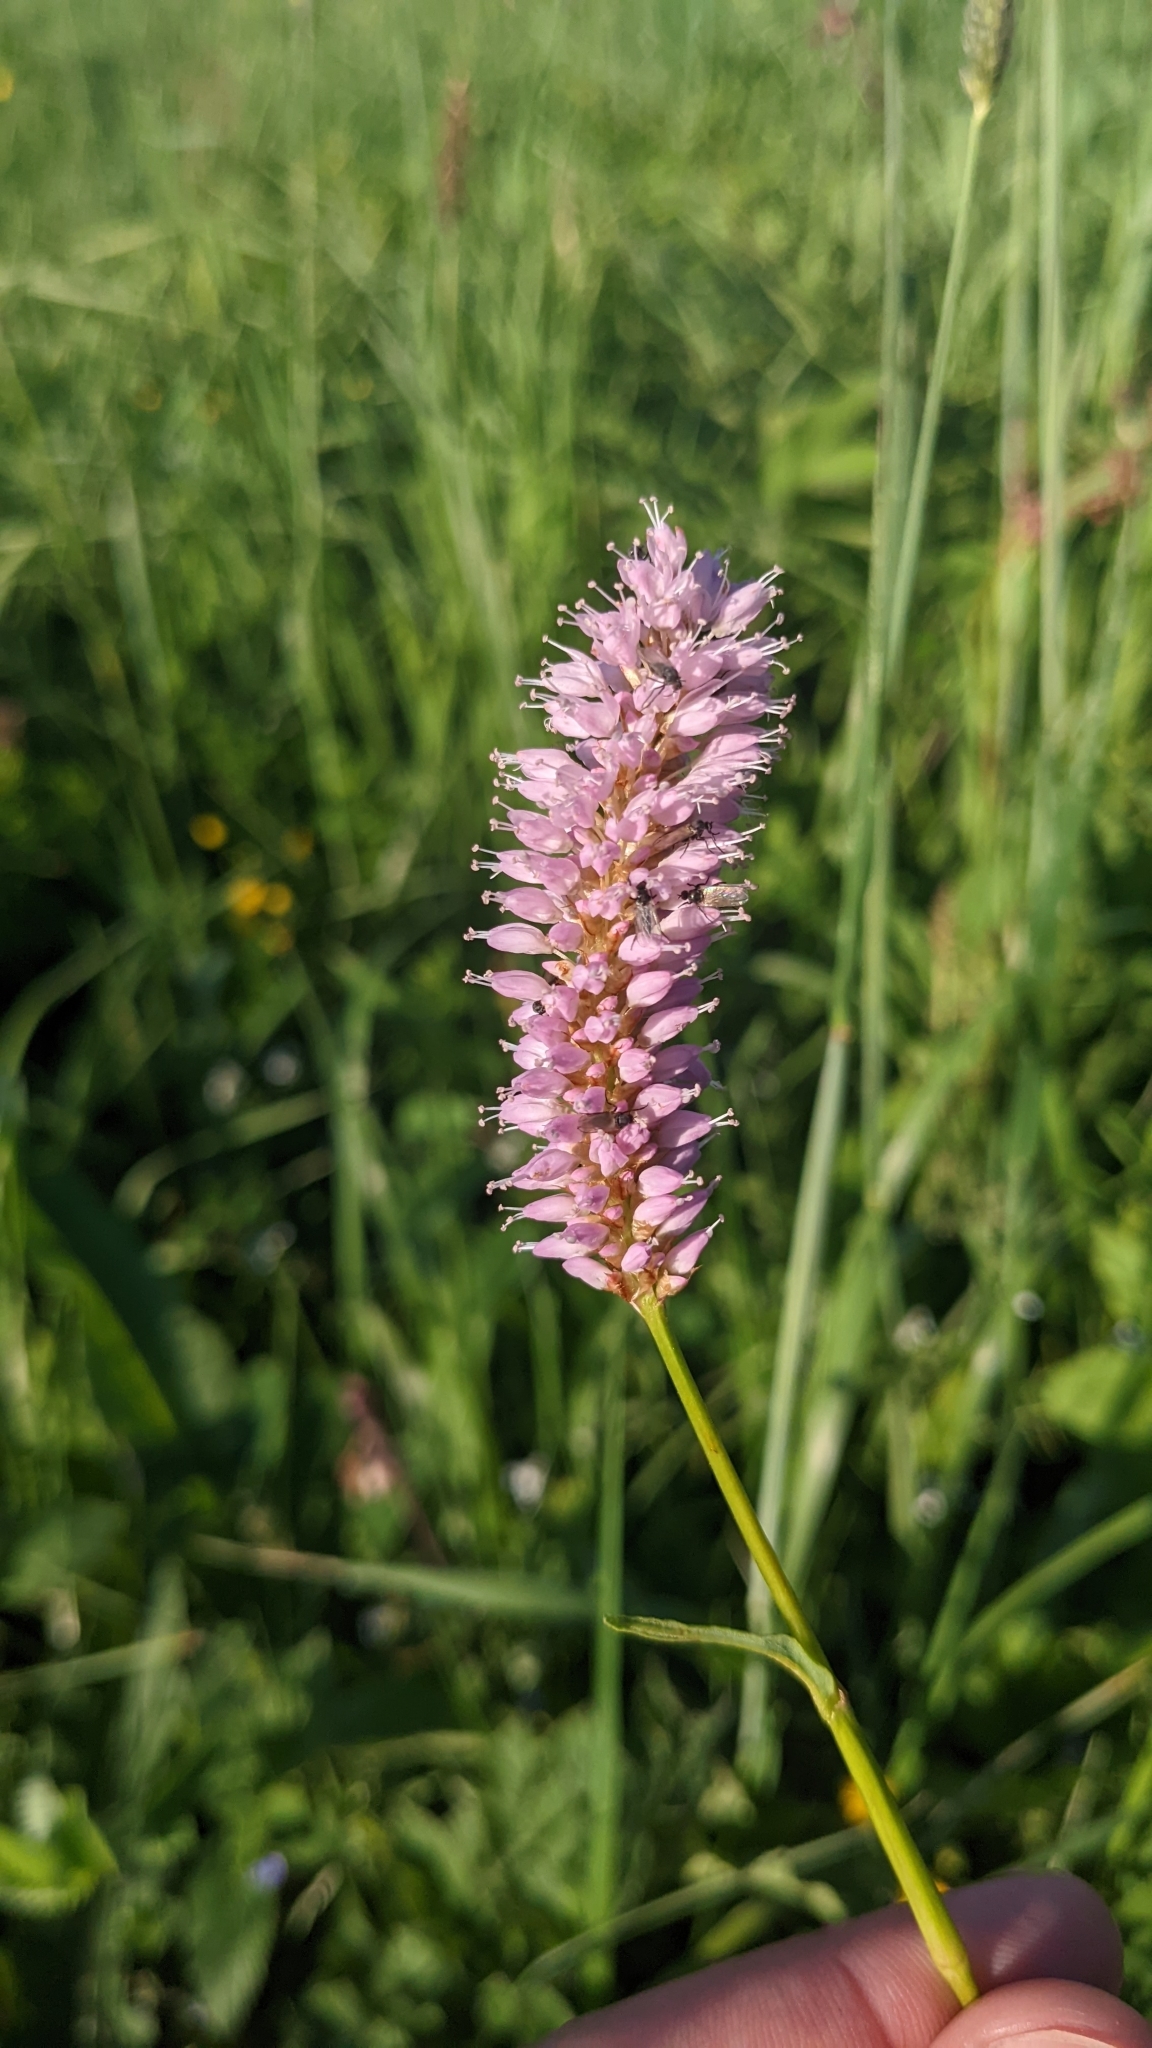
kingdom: Plantae
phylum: Tracheophyta
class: Magnoliopsida
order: Caryophyllales
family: Polygonaceae
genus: Bistorta
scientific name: Bistorta officinalis
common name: Common bistort
